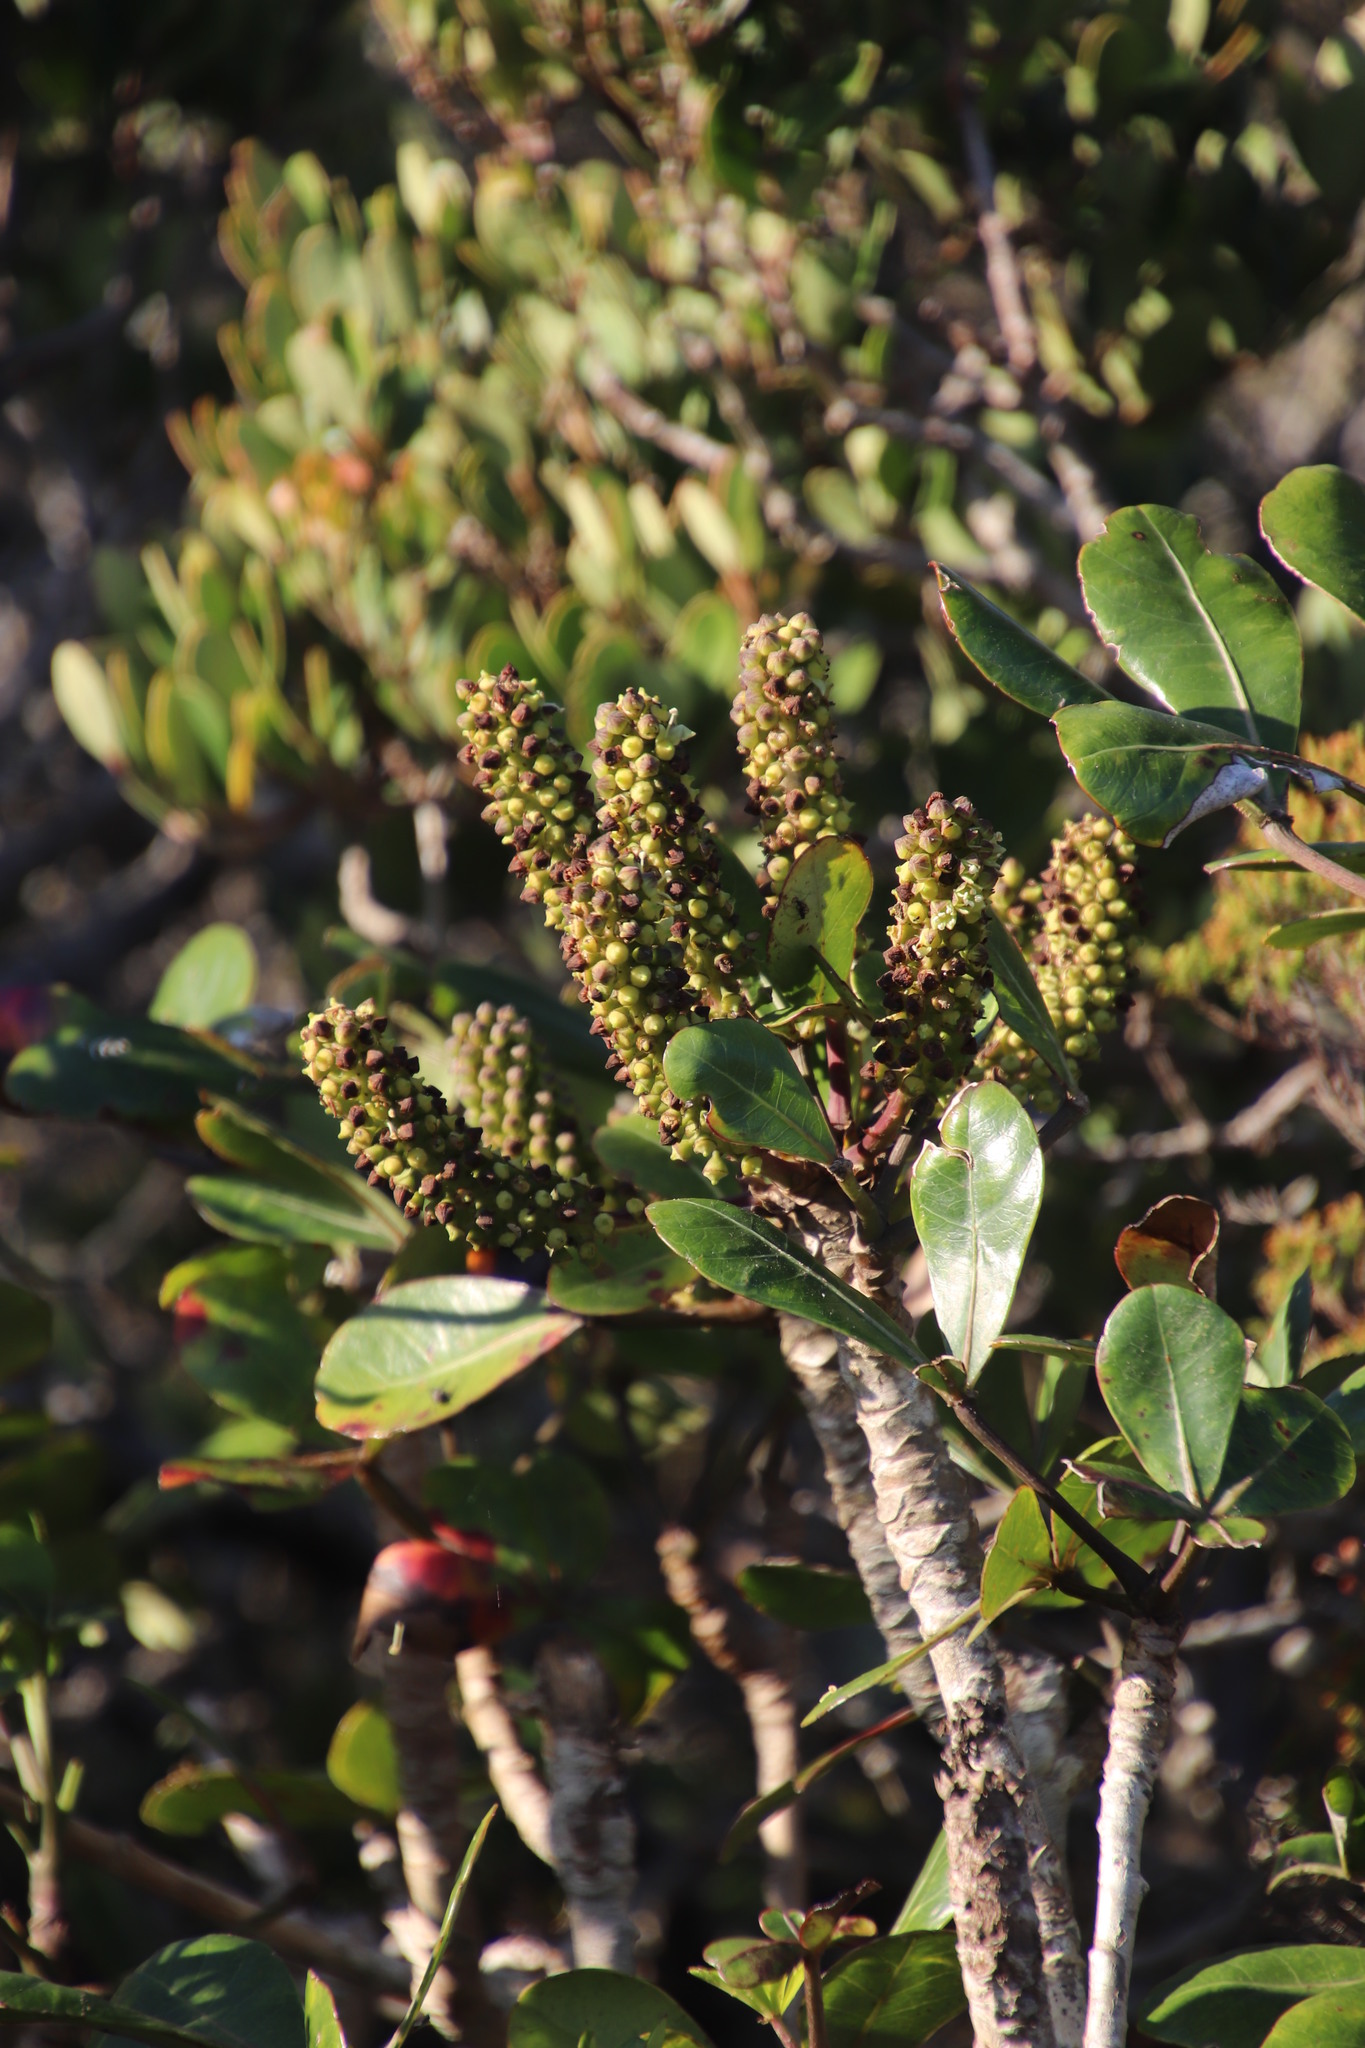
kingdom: Plantae
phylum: Tracheophyta
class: Magnoliopsida
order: Apiales
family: Araliaceae
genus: Cussonia
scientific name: Cussonia thyrsiflora
